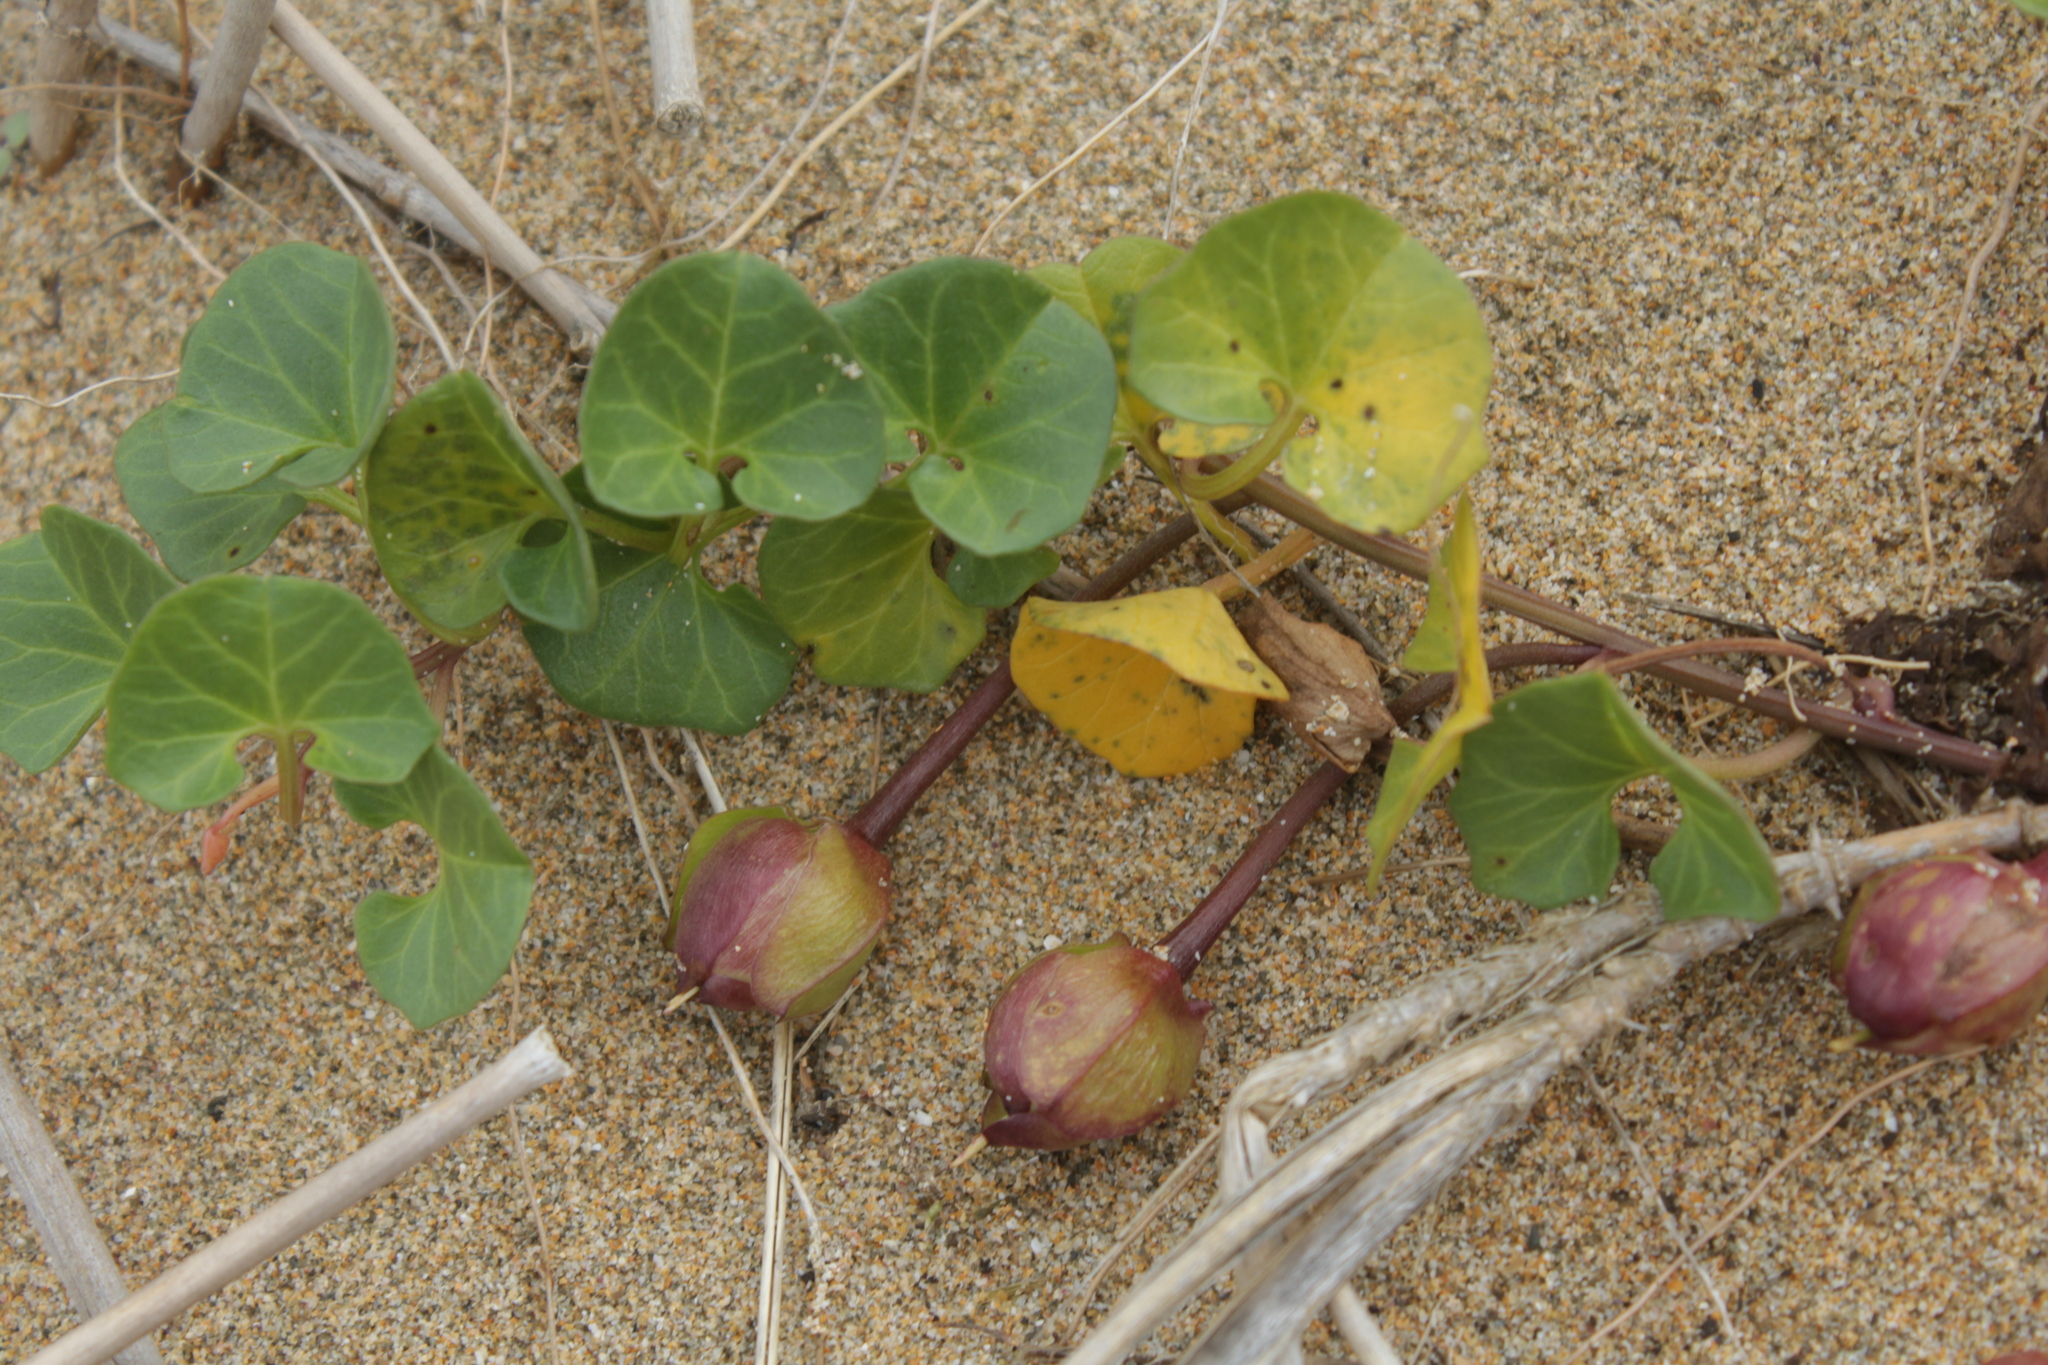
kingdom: Plantae
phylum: Tracheophyta
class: Magnoliopsida
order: Solanales
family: Convolvulaceae
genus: Calystegia
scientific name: Calystegia soldanella
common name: Sea bindweed
